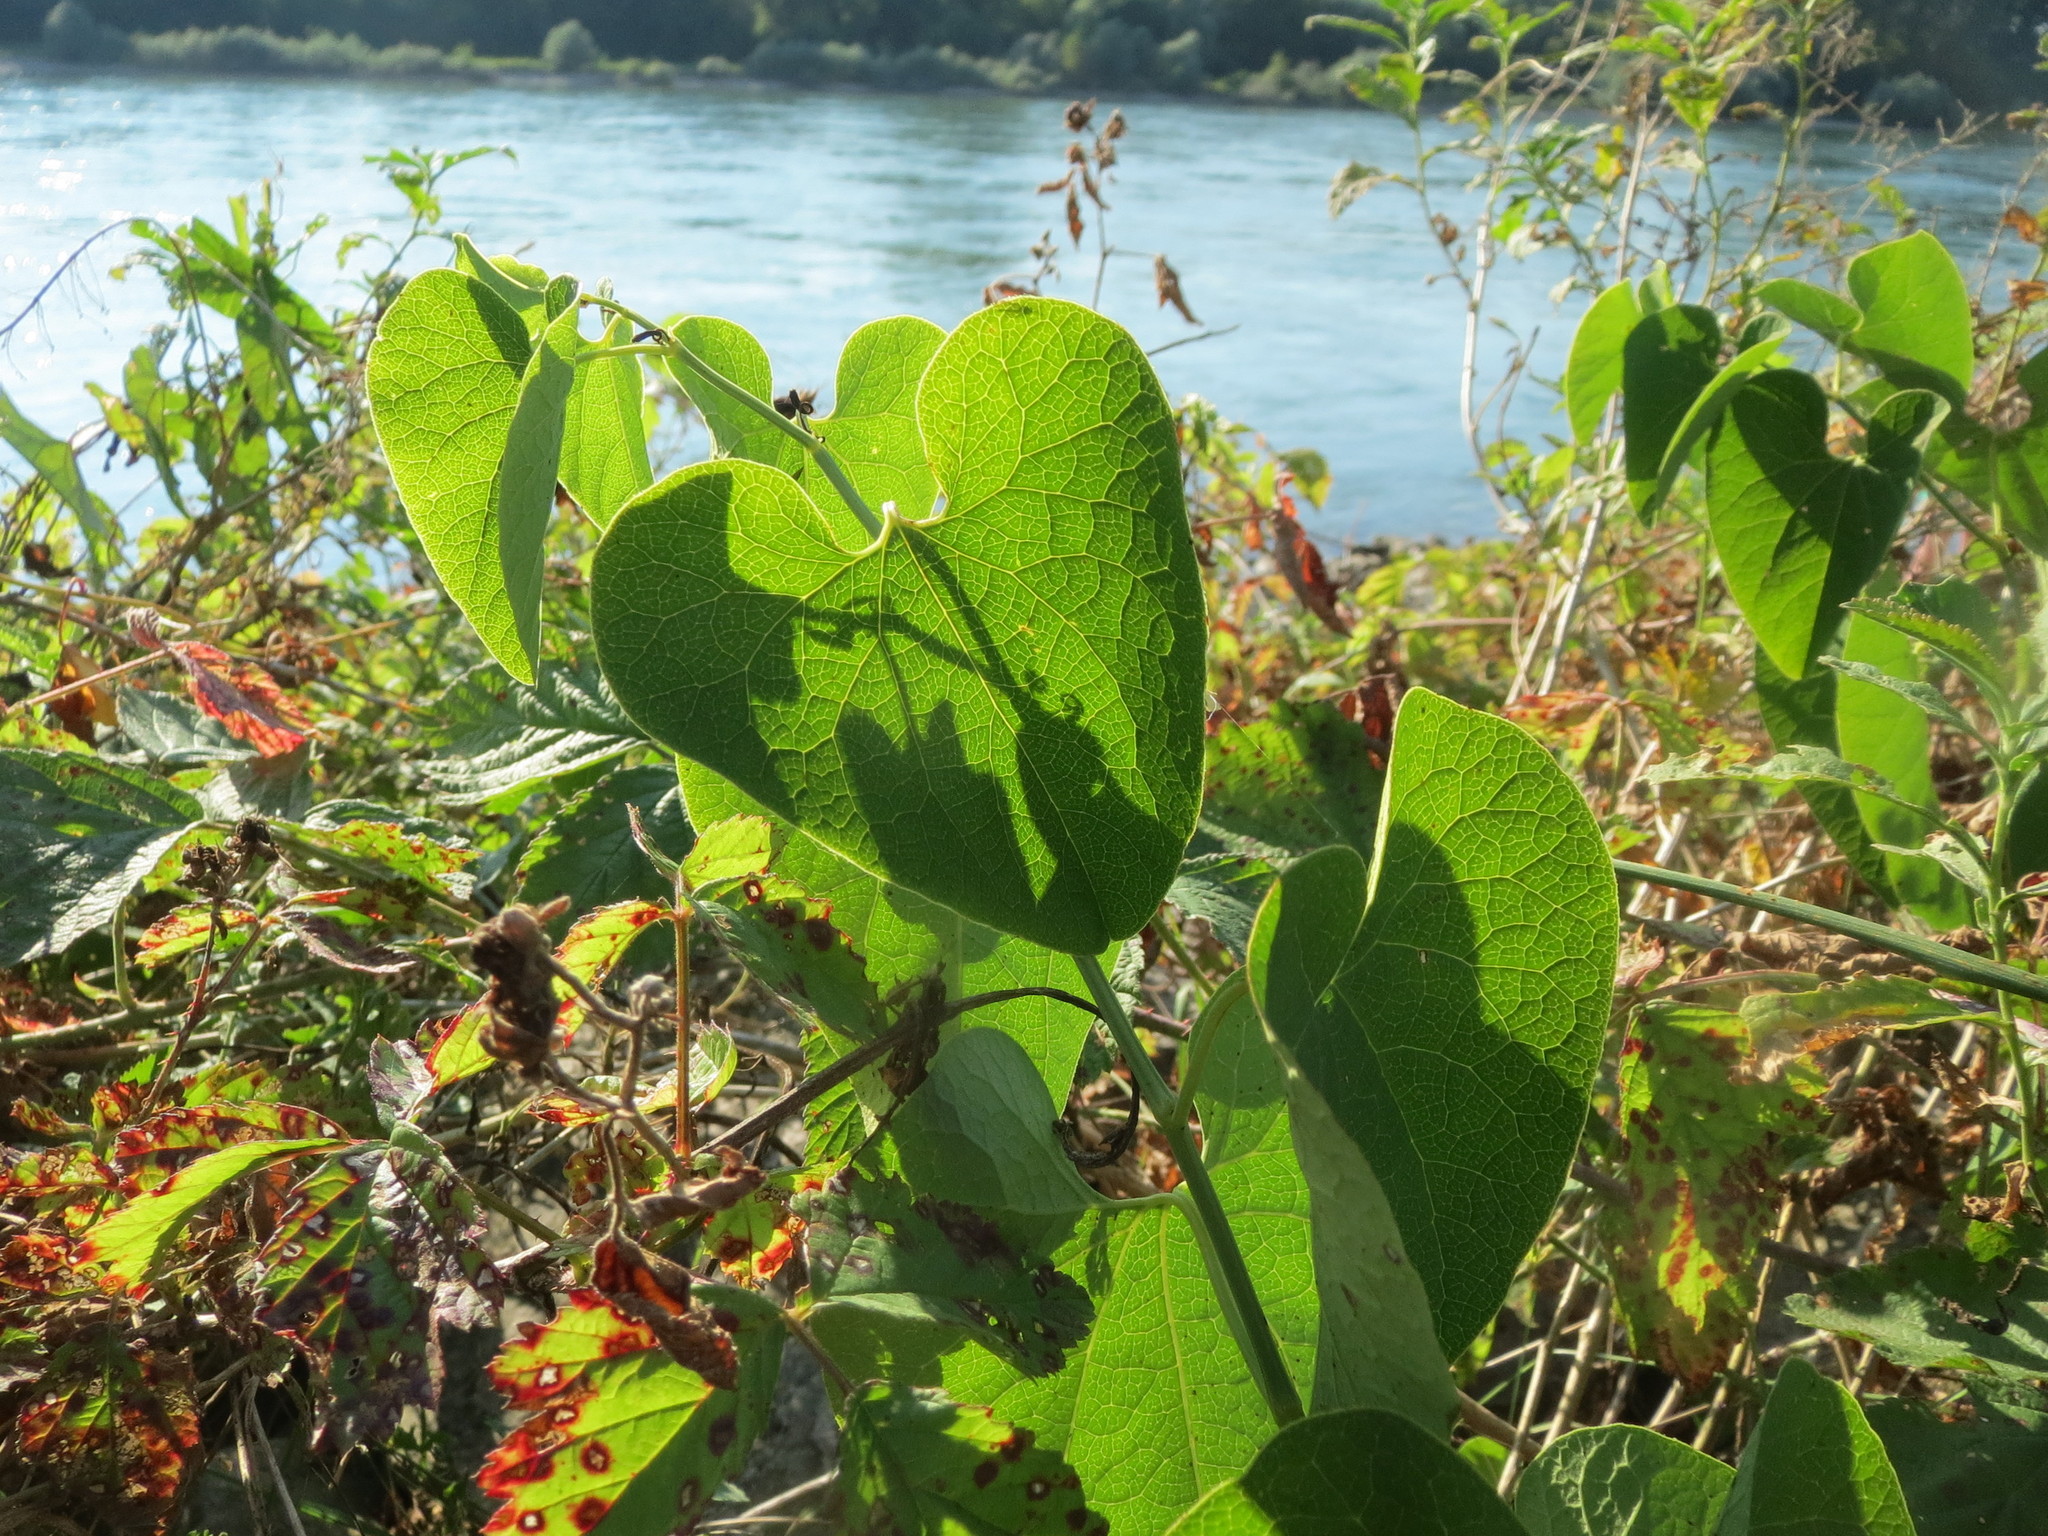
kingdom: Plantae
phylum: Tracheophyta
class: Magnoliopsida
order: Piperales
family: Aristolochiaceae
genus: Aristolochia
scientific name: Aristolochia clematitis
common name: Birthwort
